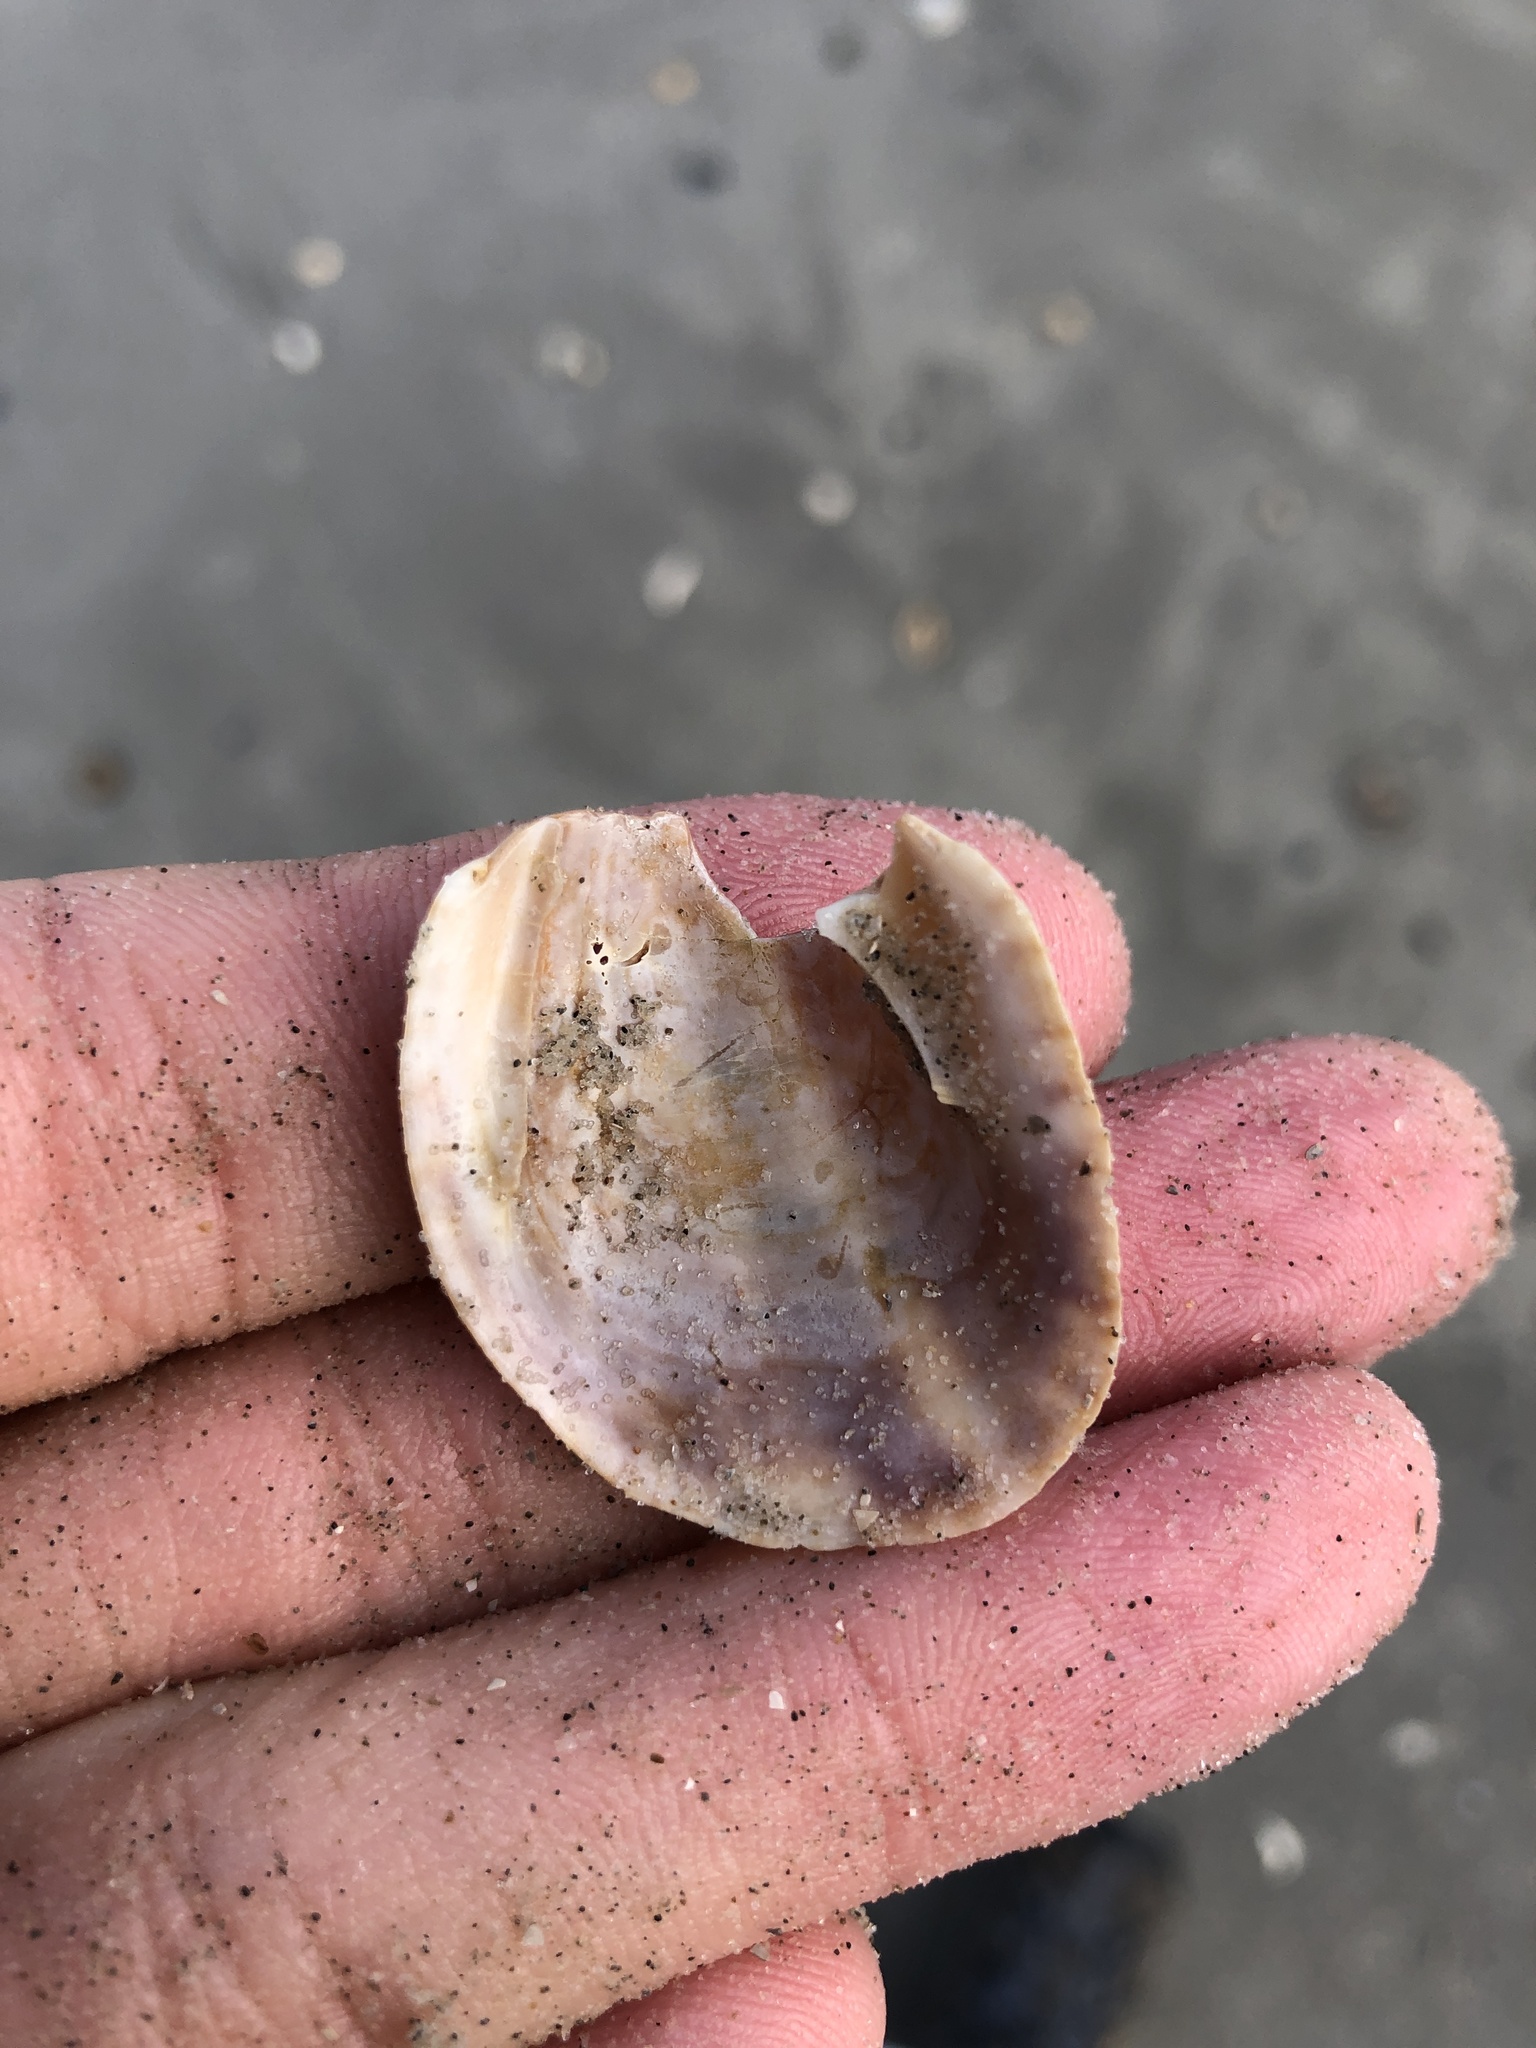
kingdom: Animalia
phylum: Mollusca
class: Gastropoda
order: Littorinimorpha
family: Calyptraeidae
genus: Crepidula
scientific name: Crepidula fornicata
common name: Slipper limpet
